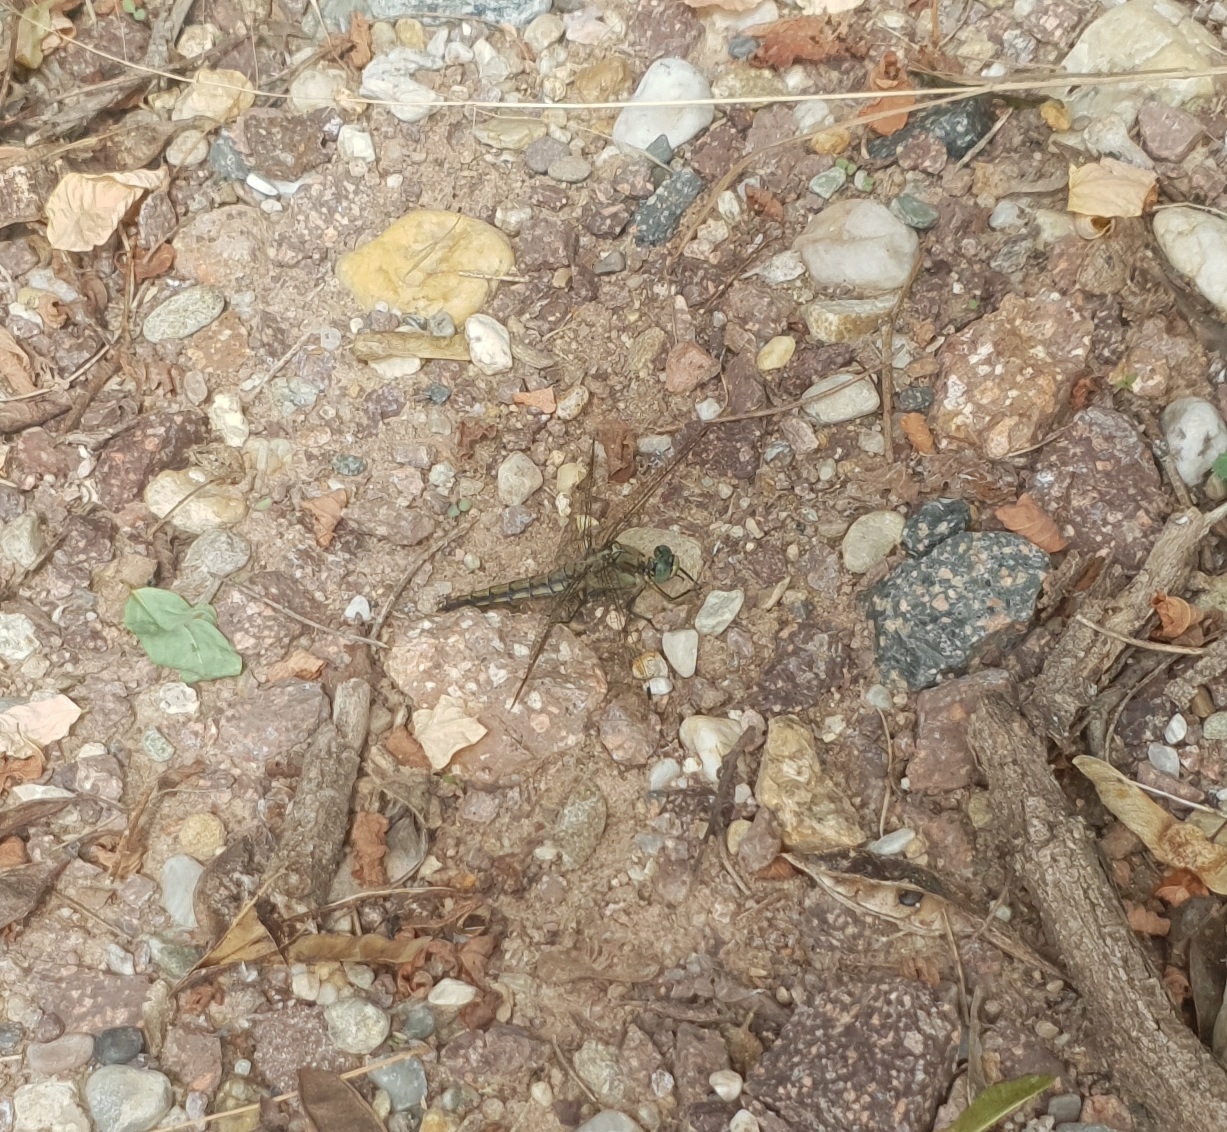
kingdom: Animalia
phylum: Arthropoda
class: Insecta
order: Odonata
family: Libellulidae
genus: Orthetrum
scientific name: Orthetrum cancellatum
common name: Black-tailed skimmer
